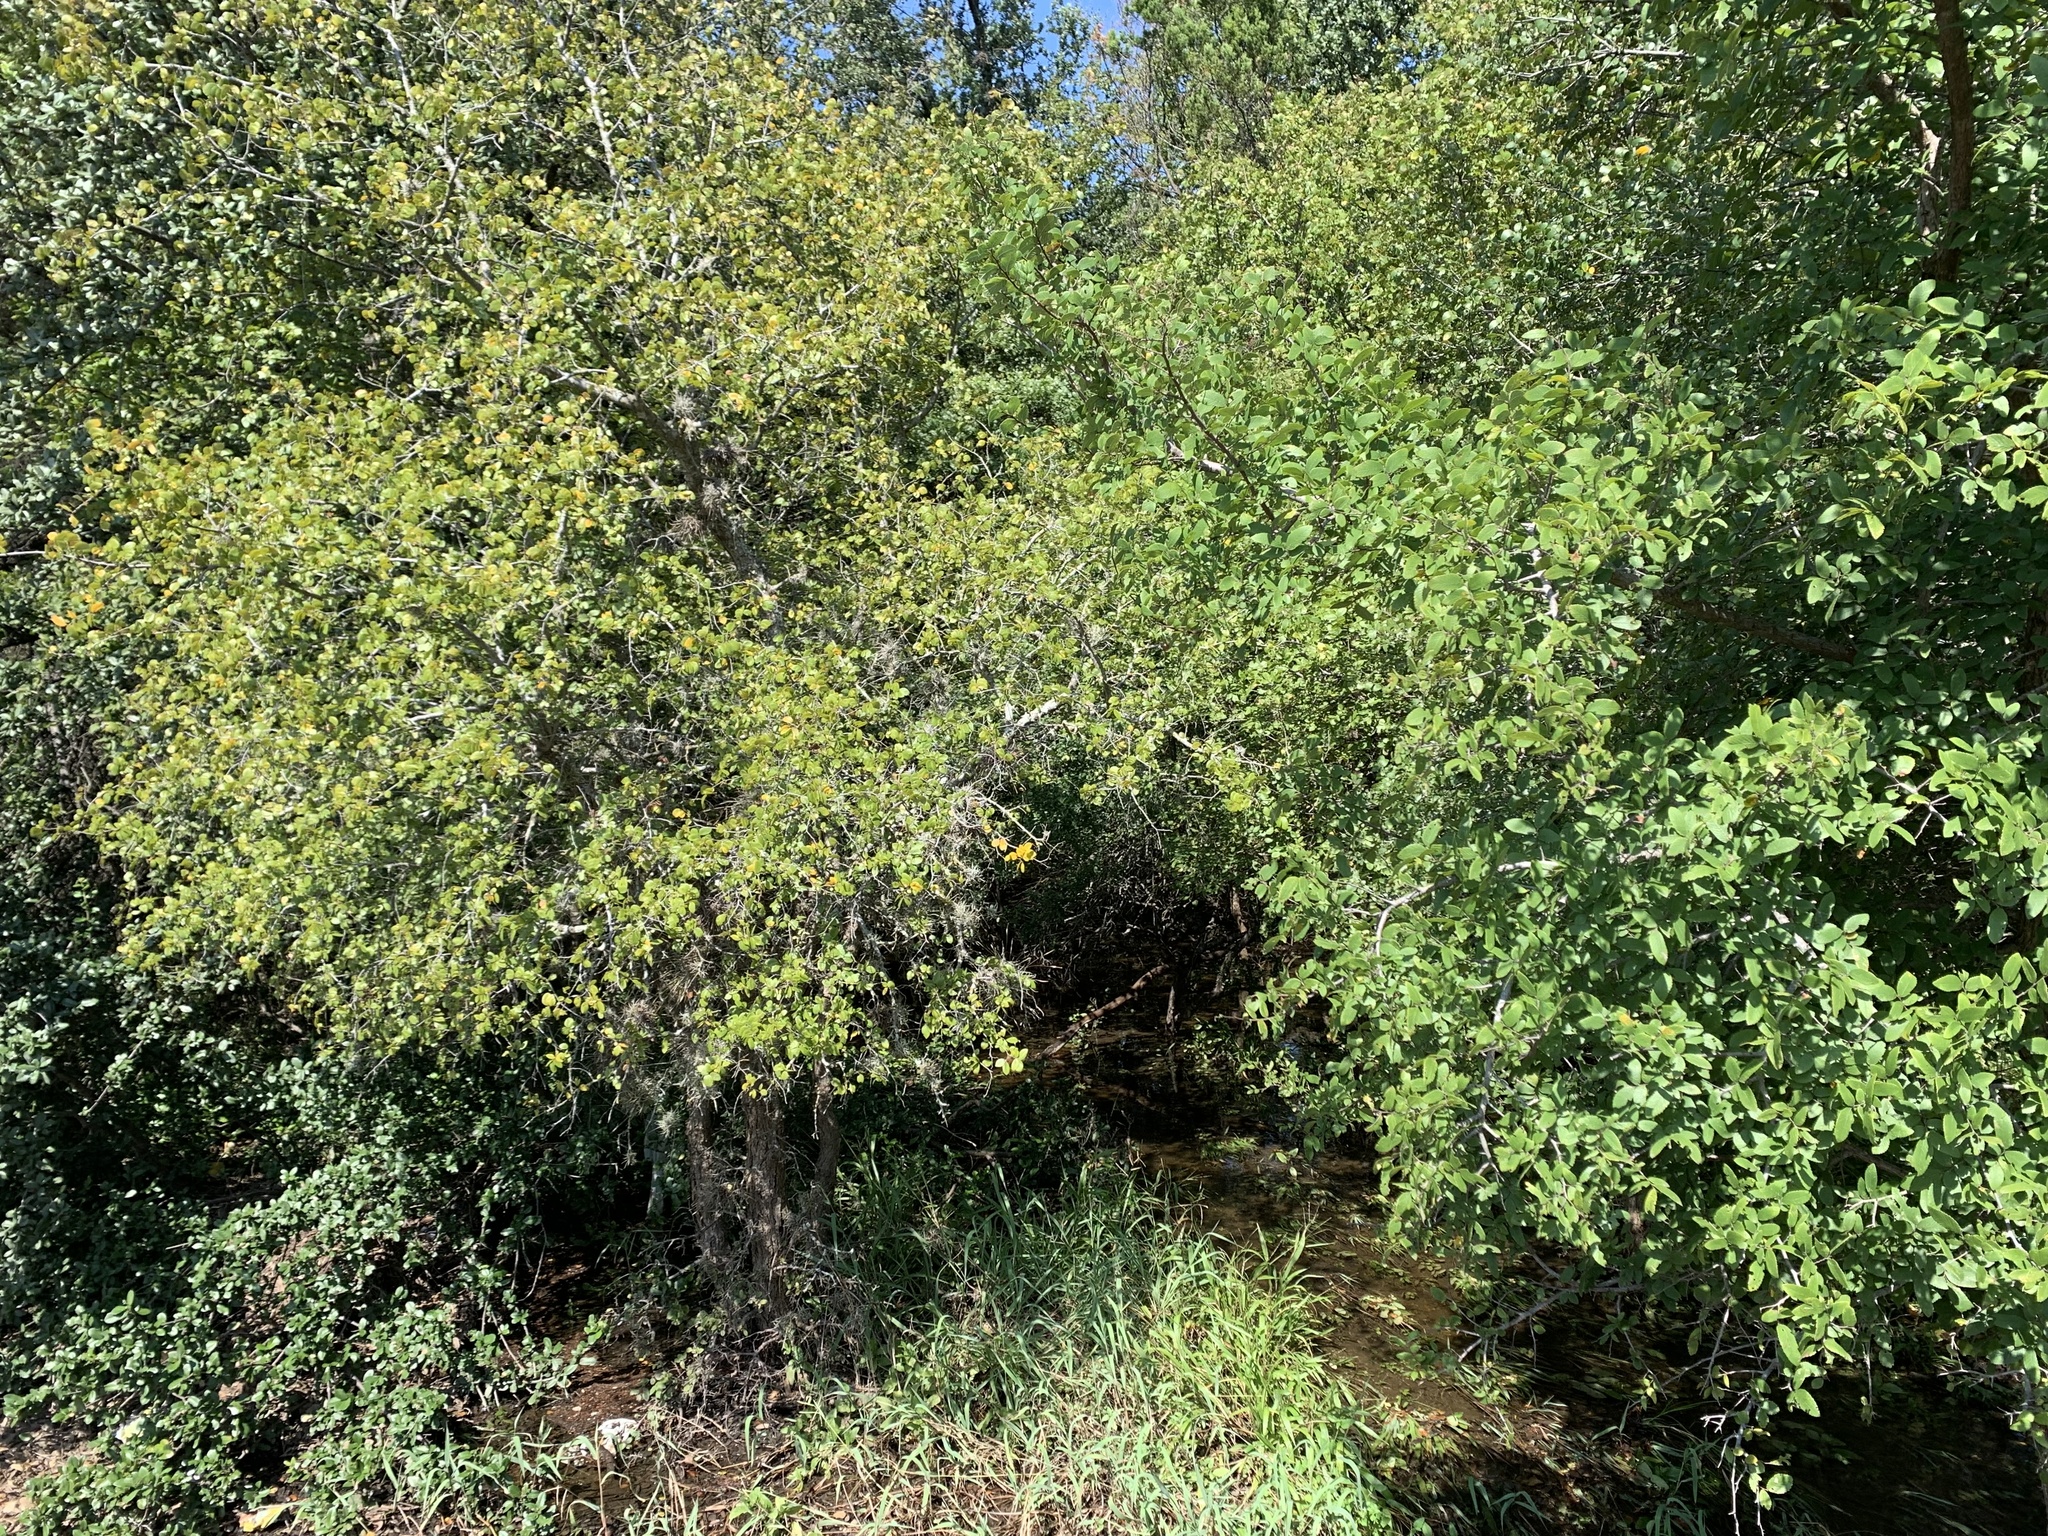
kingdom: Plantae
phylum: Tracheophyta
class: Magnoliopsida
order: Rosales
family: Ulmaceae
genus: Ulmus
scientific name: Ulmus crassifolia
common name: Basket elm
